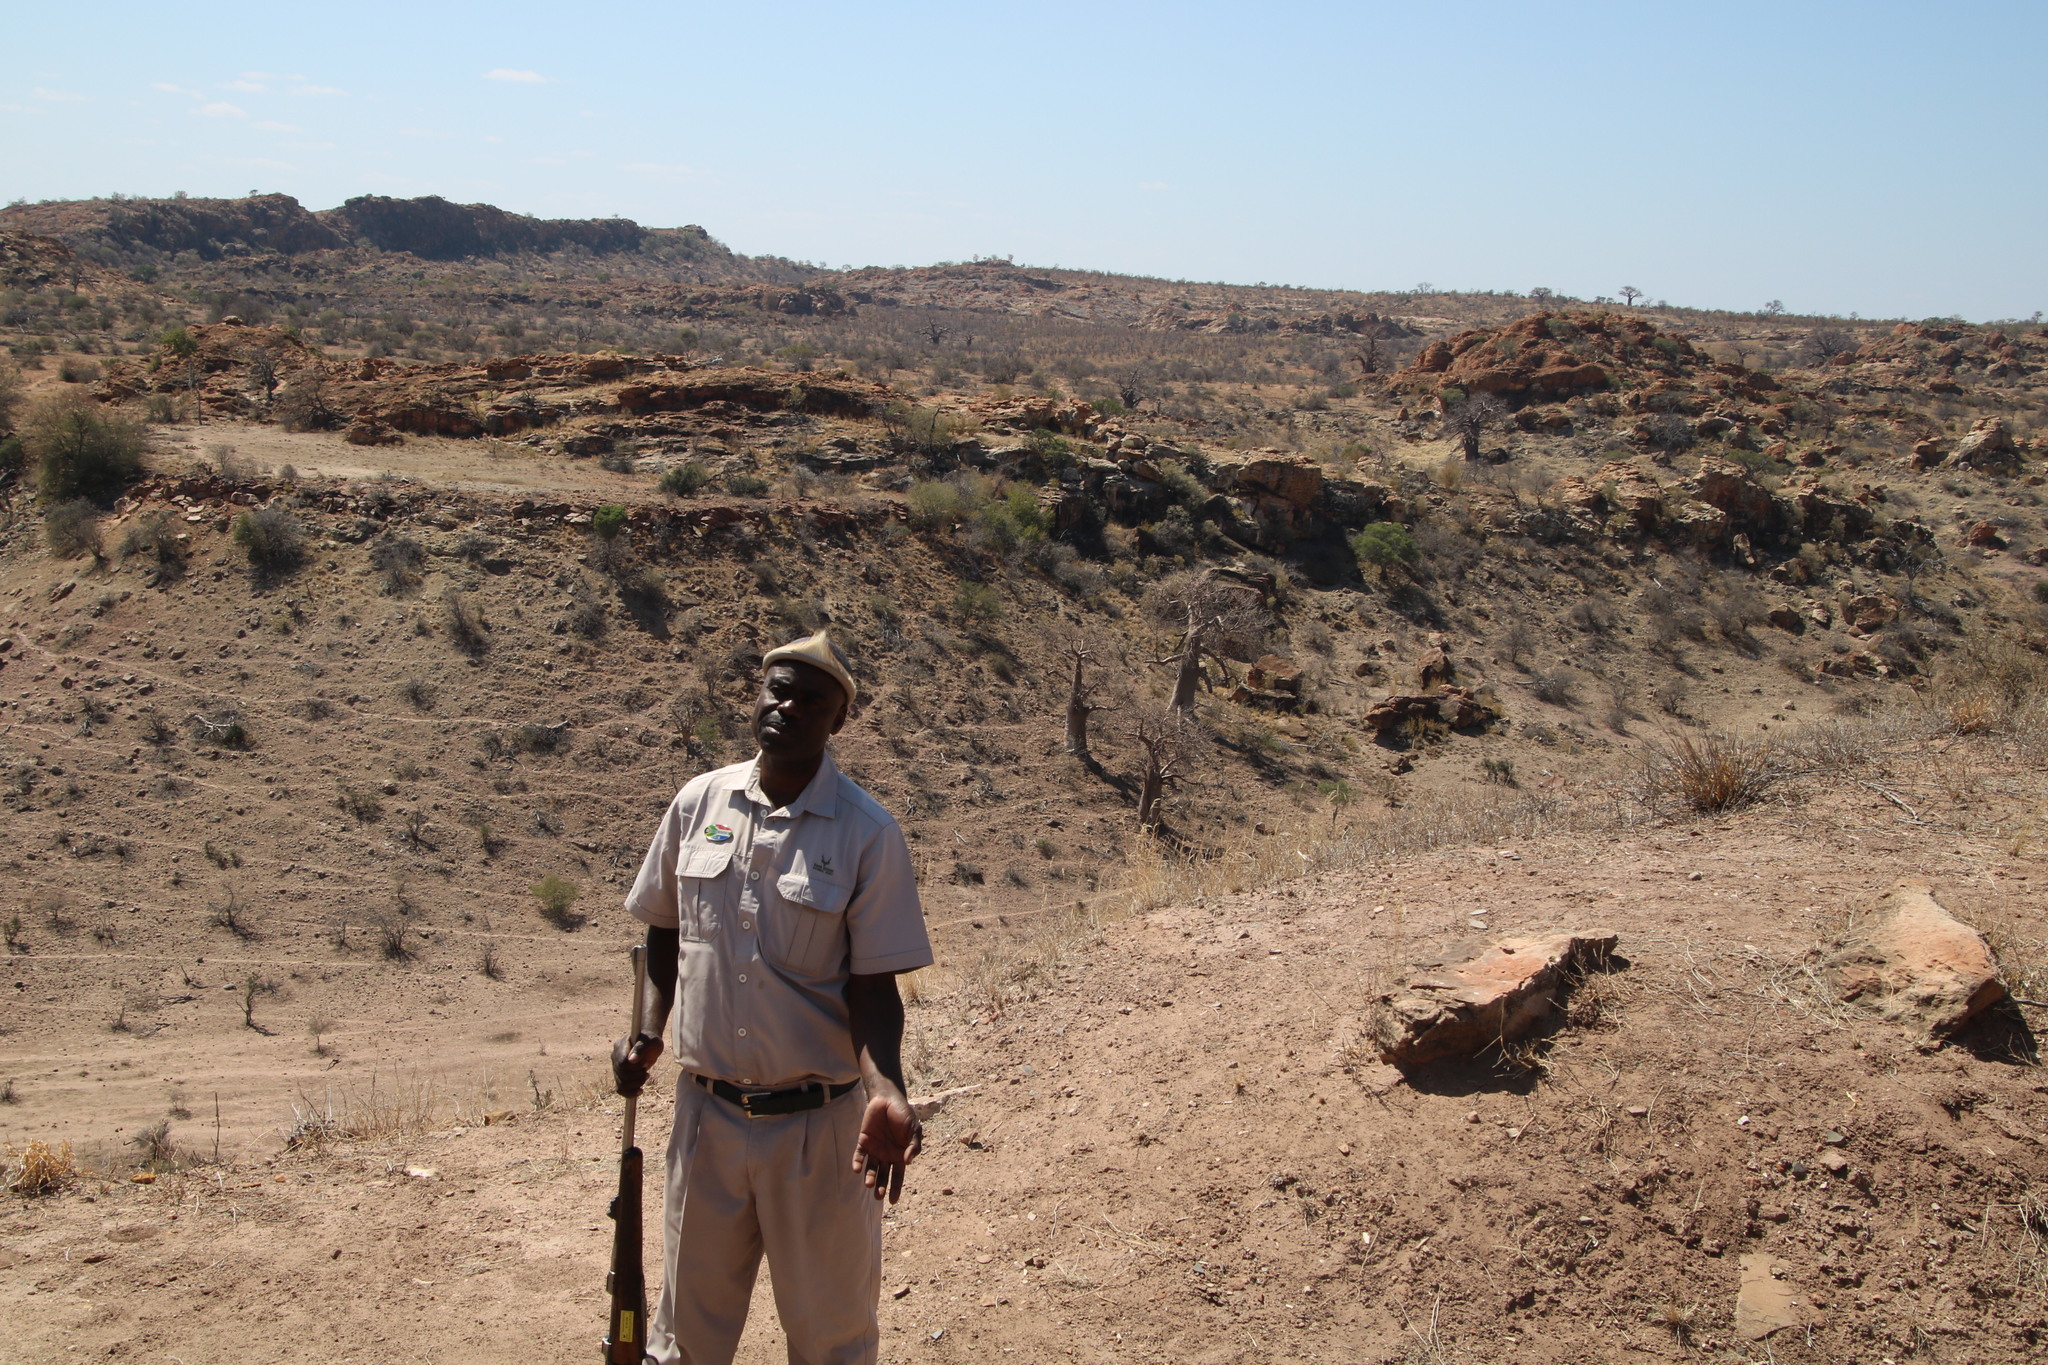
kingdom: Plantae
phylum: Tracheophyta
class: Magnoliopsida
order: Malvales
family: Malvaceae
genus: Adansonia
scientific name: Adansonia digitata
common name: Dead-rat-tree
